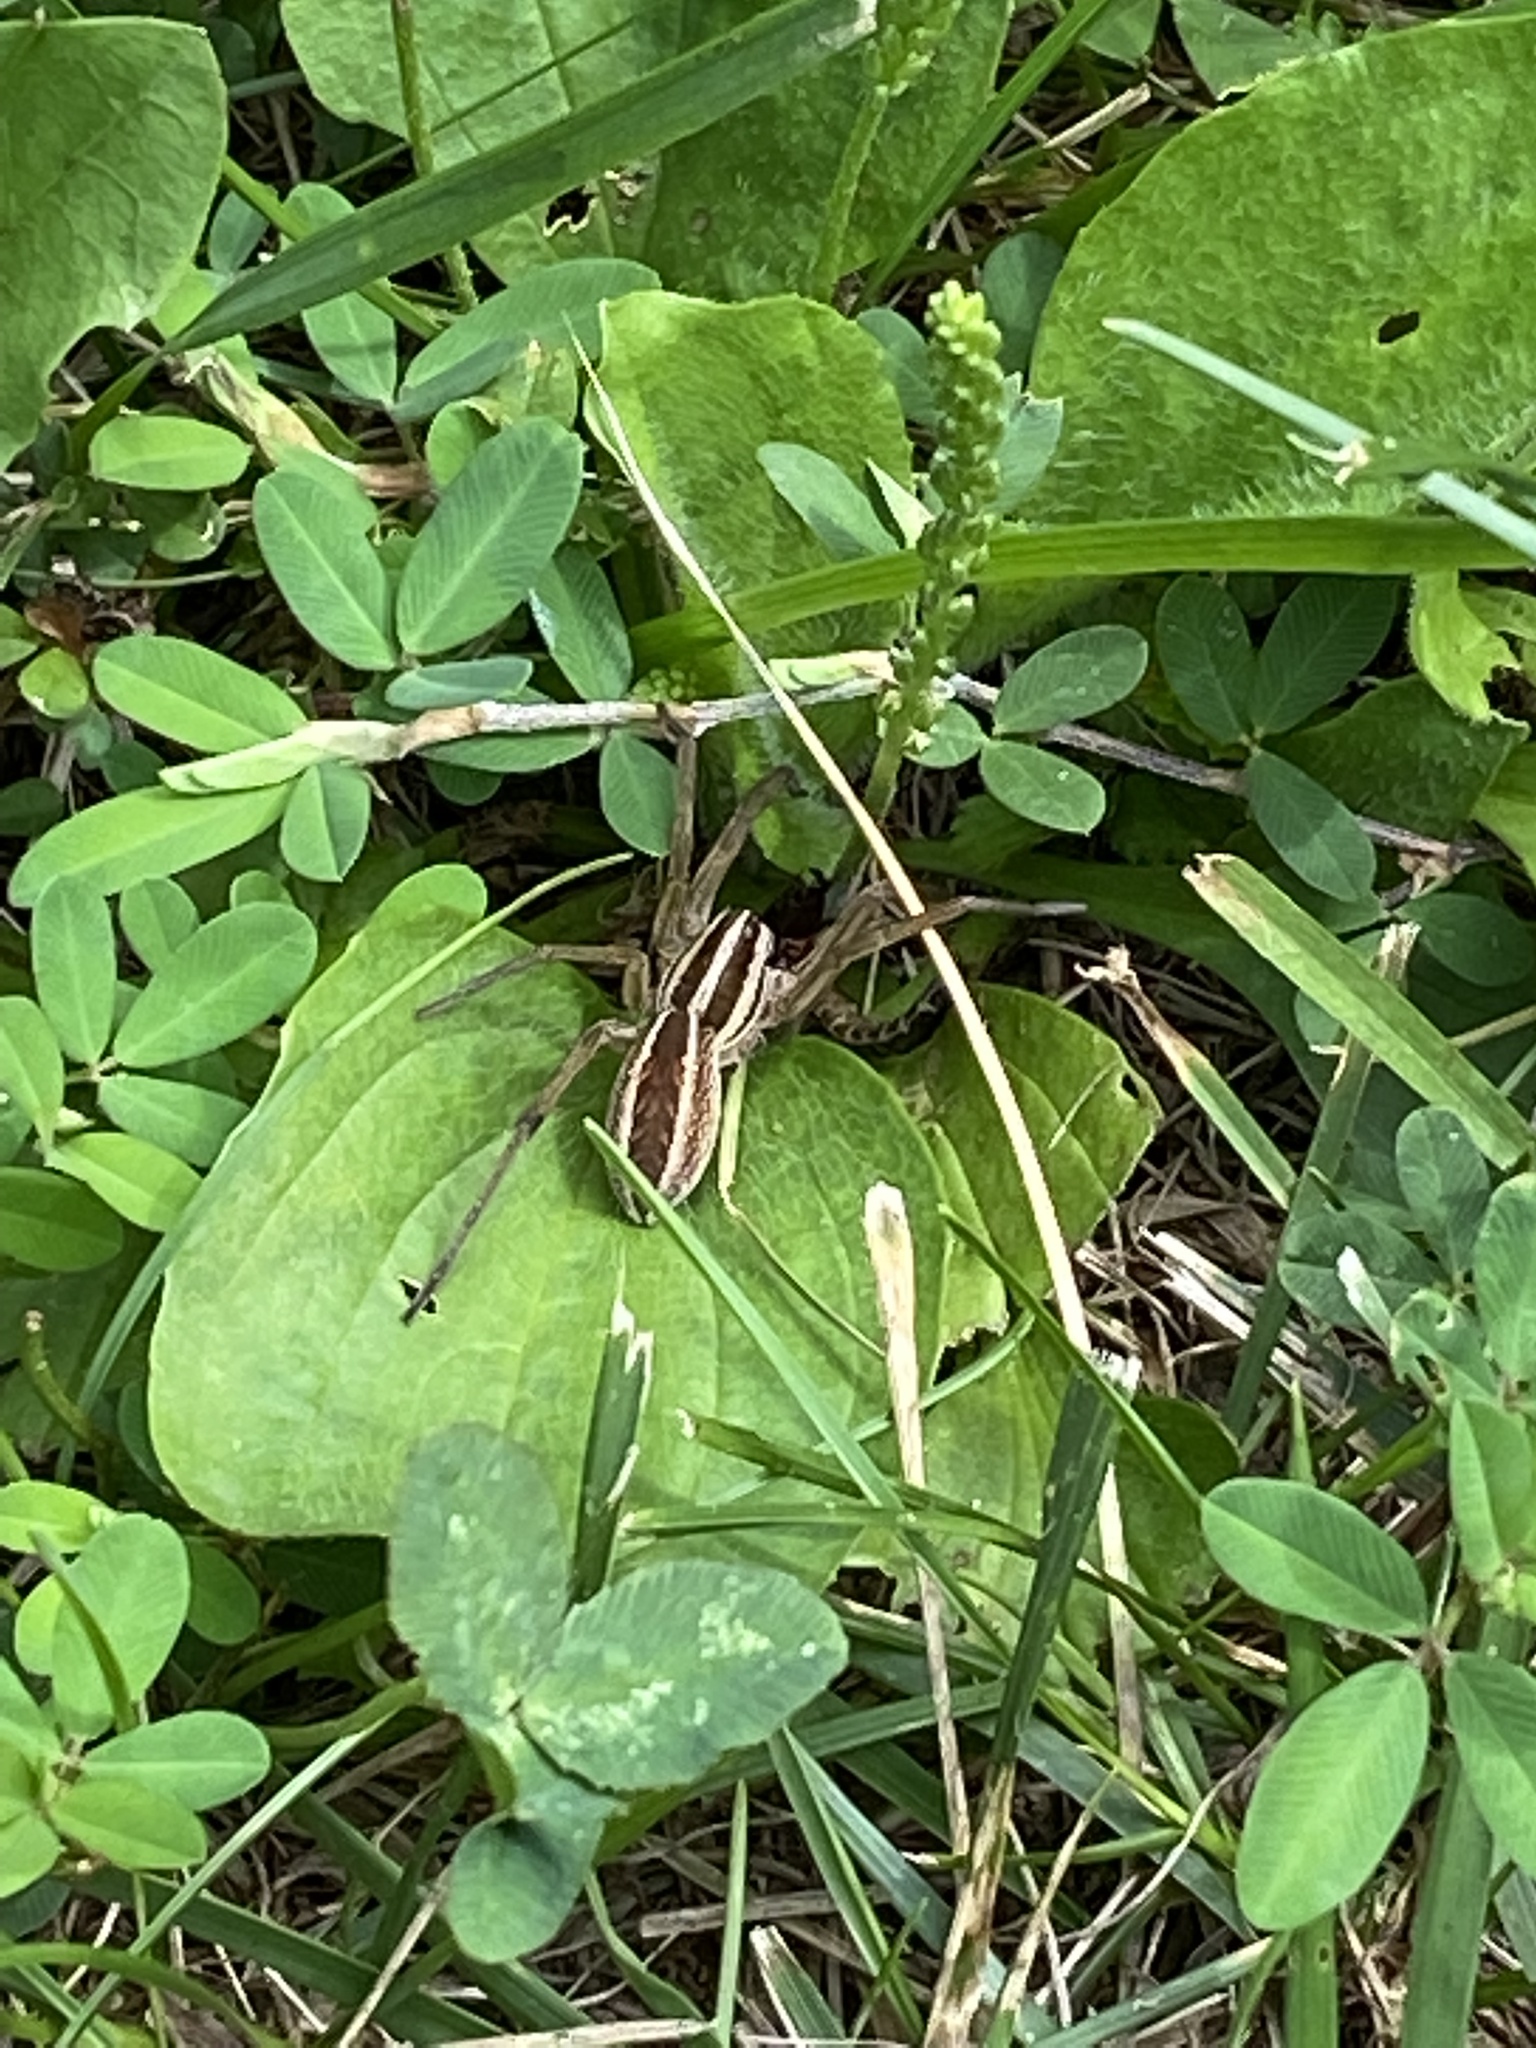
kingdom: Animalia
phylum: Arthropoda
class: Arachnida
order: Araneae
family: Lycosidae
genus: Rabidosa
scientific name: Rabidosa rabida
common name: Rabid wolf spider
